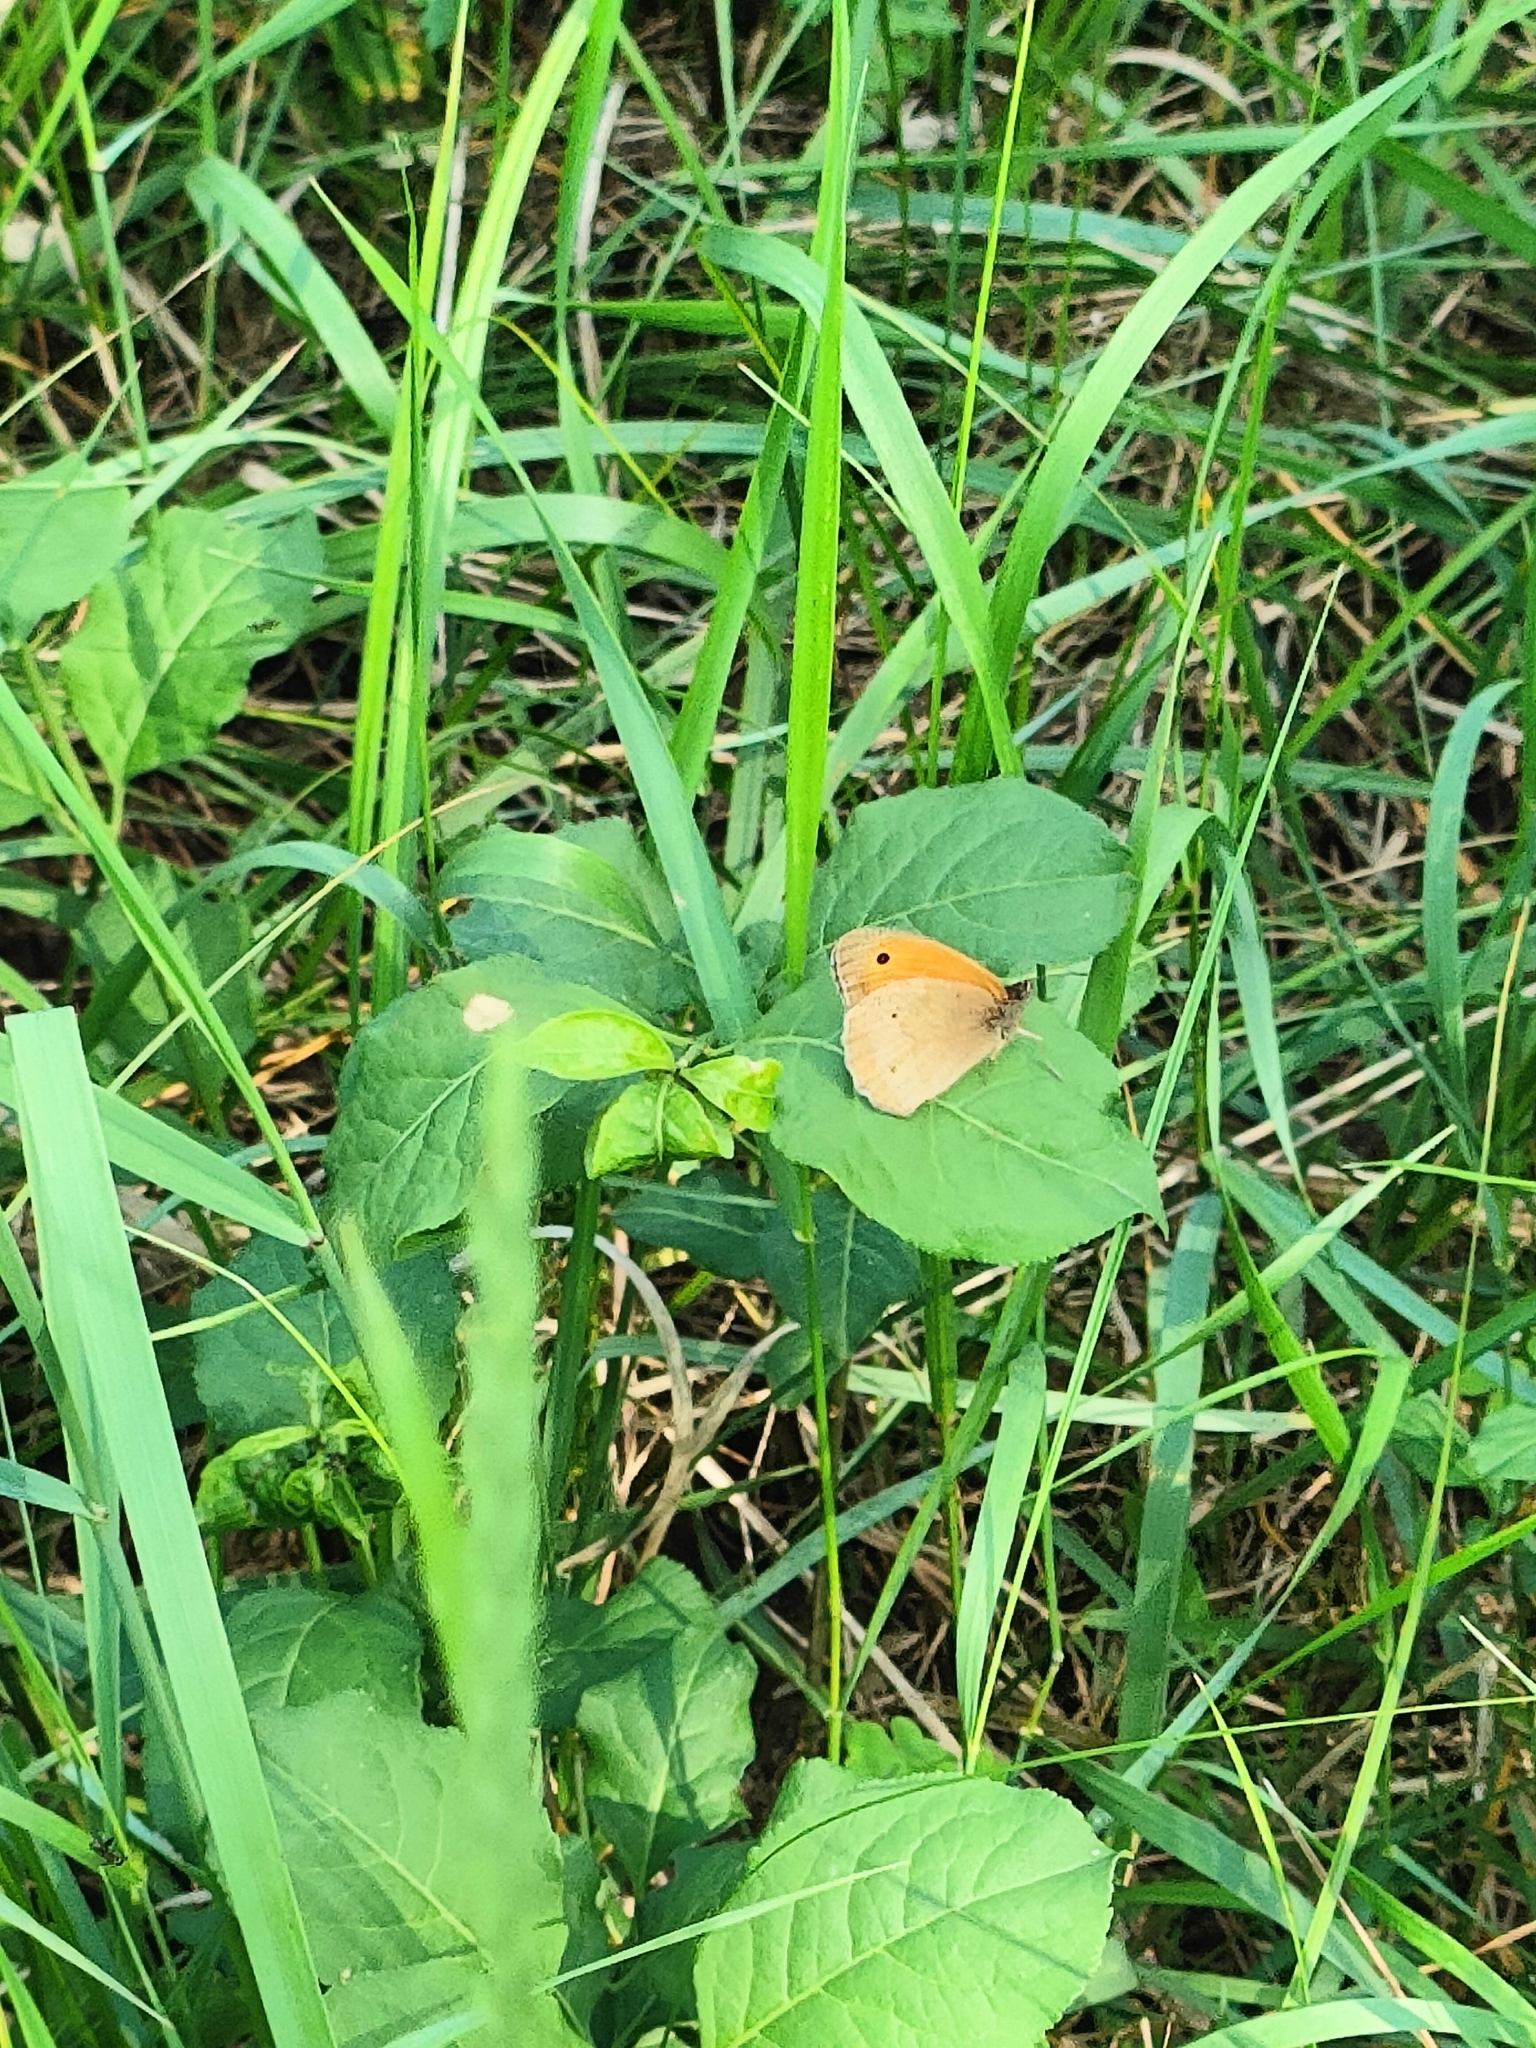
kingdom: Animalia
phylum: Arthropoda
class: Insecta
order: Lepidoptera
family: Nymphalidae
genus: Maniola
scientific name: Maniola jurtina
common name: Meadow brown
